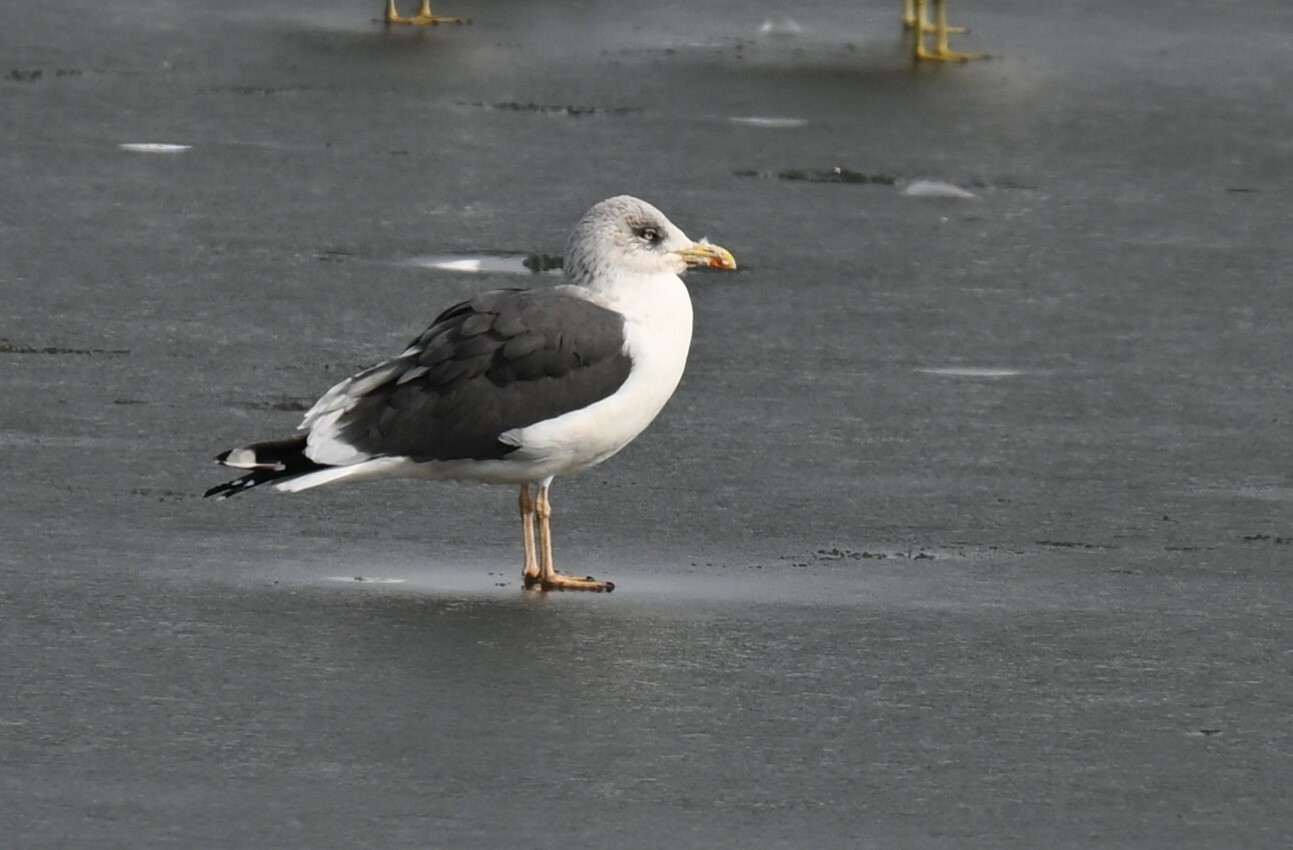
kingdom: Animalia
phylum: Chordata
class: Aves
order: Charadriiformes
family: Laridae
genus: Larus
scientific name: Larus fuscus
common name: Lesser black-backed gull
